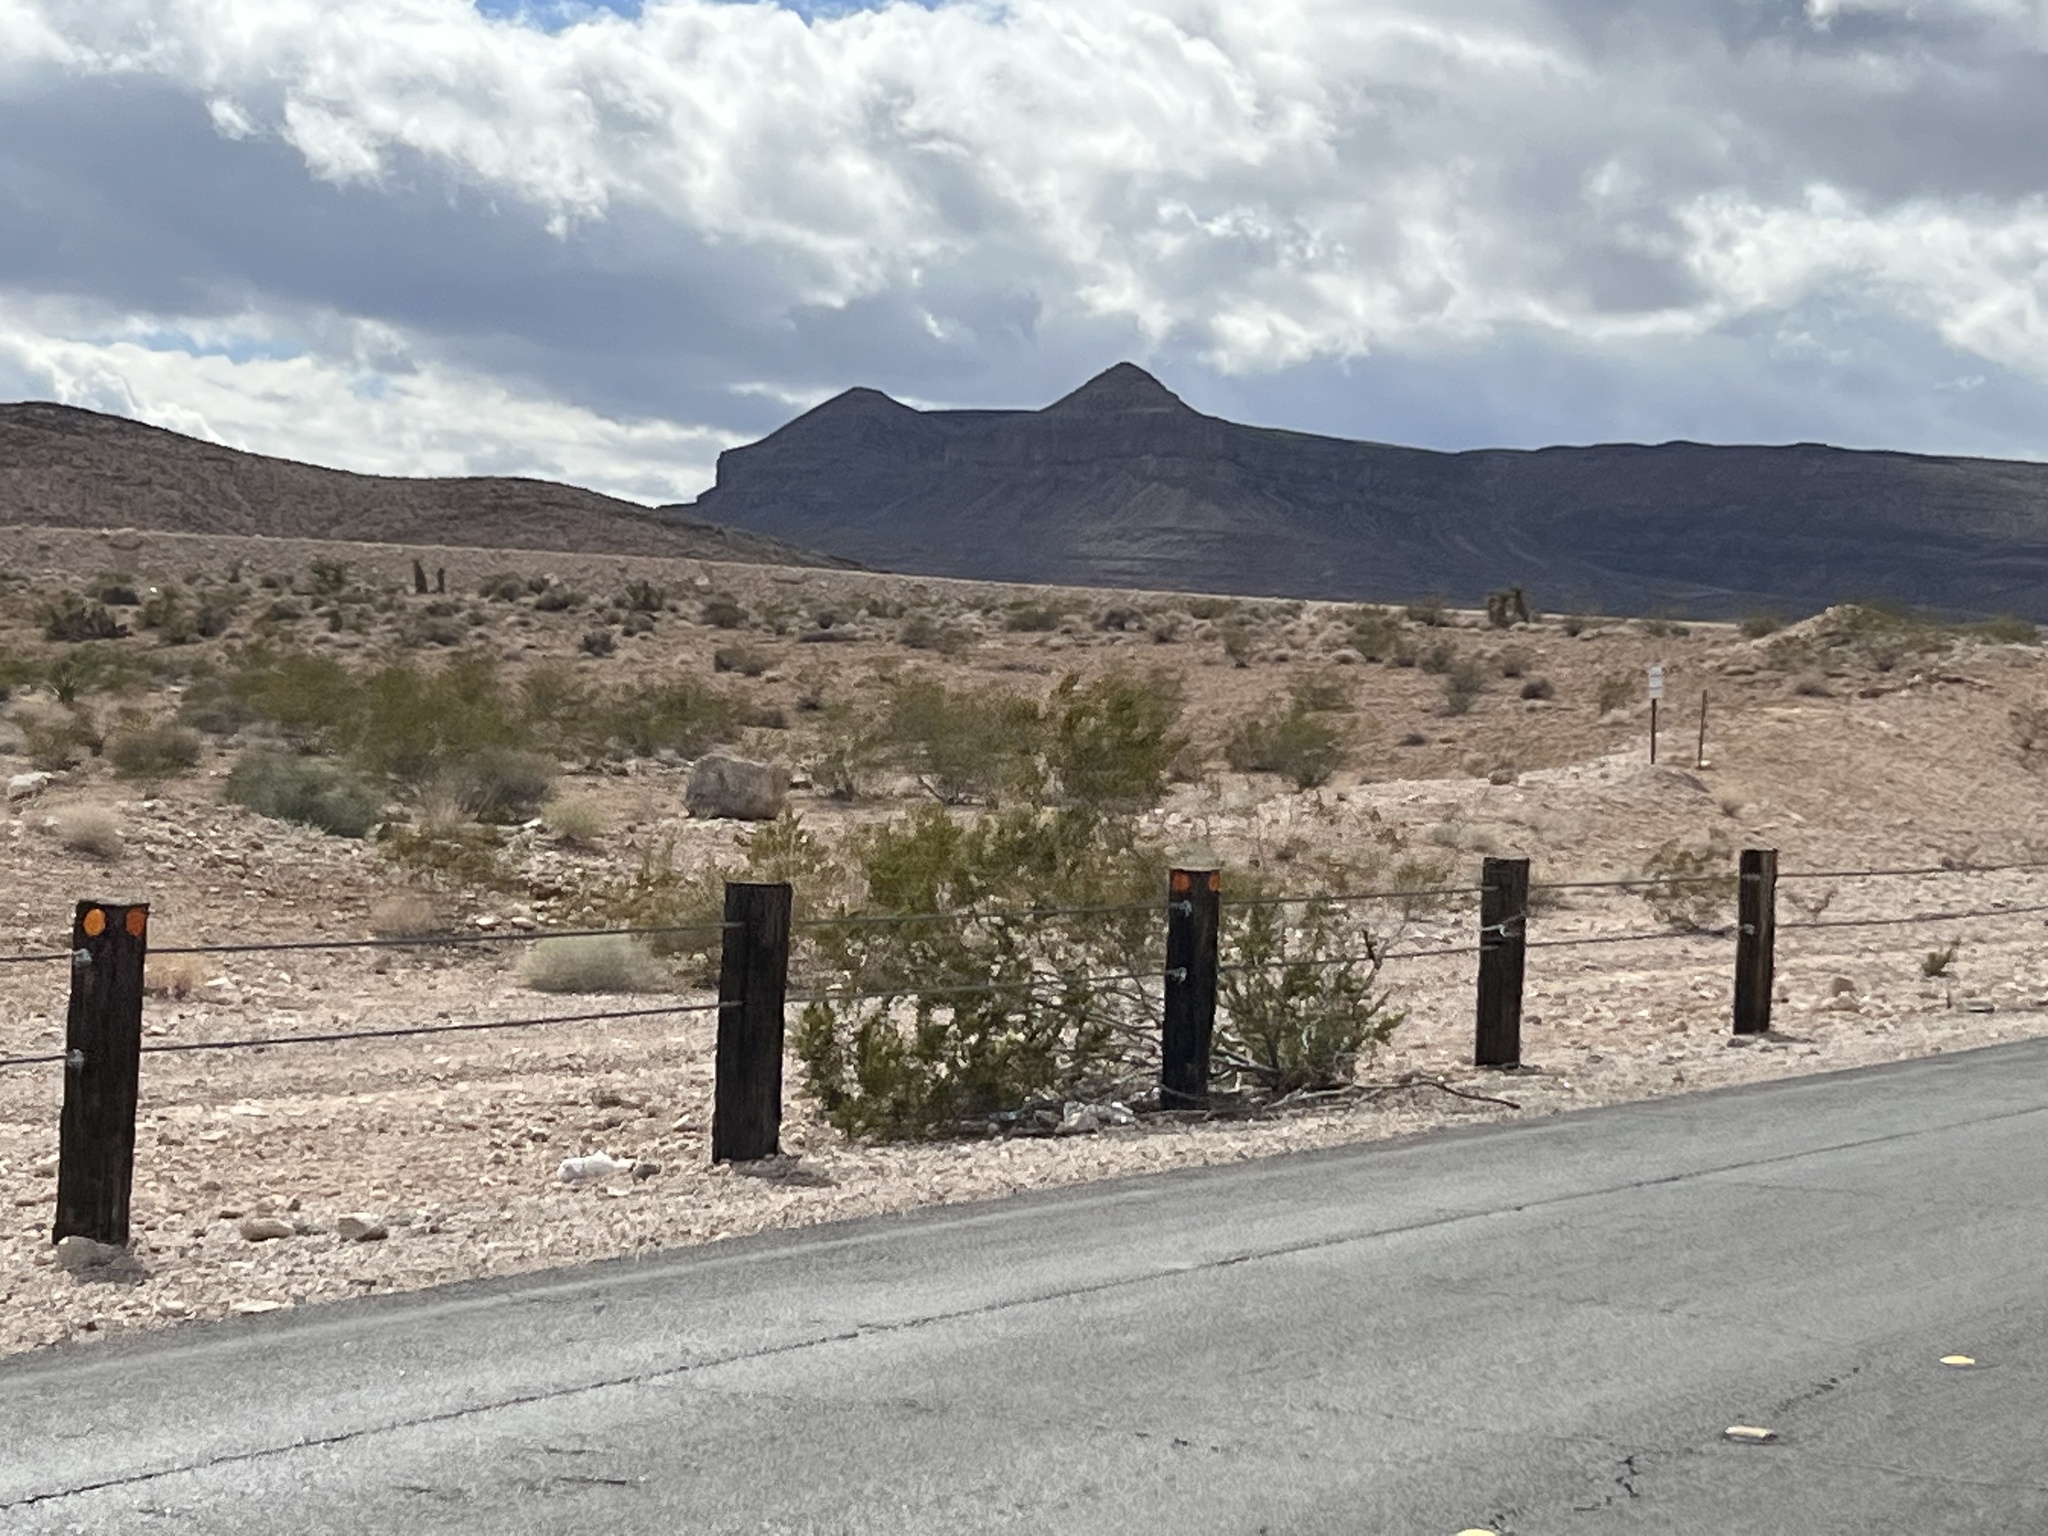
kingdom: Plantae
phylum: Tracheophyta
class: Magnoliopsida
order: Zygophyllales
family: Zygophyllaceae
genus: Larrea
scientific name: Larrea tridentata
